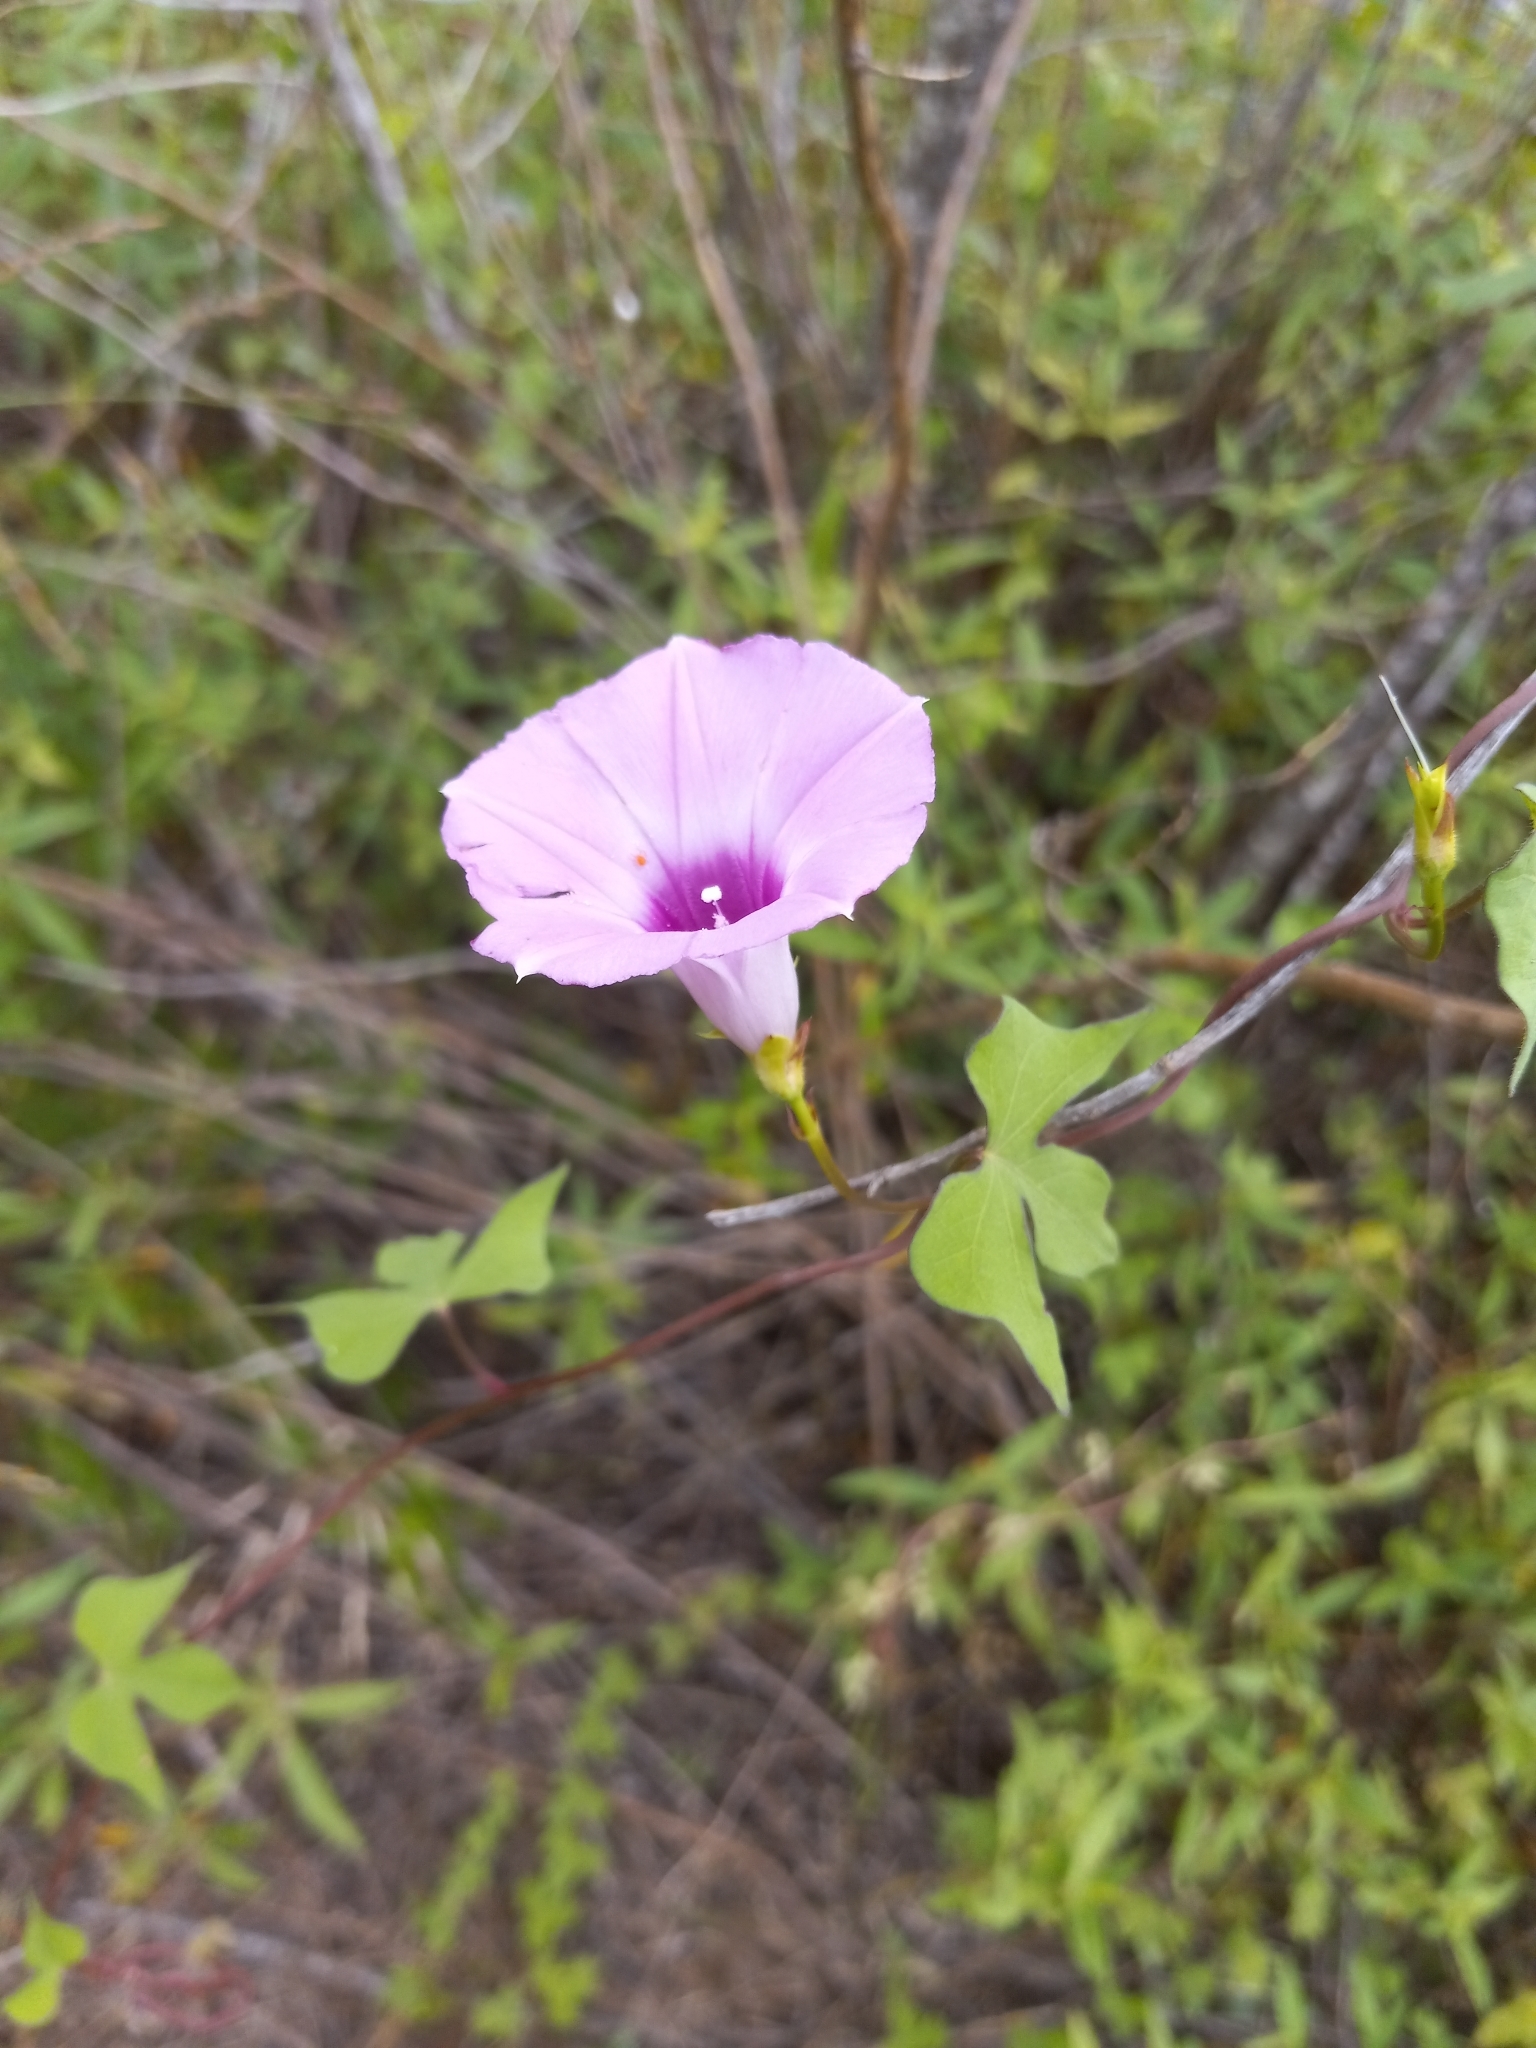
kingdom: Plantae
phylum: Tracheophyta
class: Magnoliopsida
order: Solanales
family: Convolvulaceae
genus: Ipomoea
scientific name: Ipomoea cordatotriloba
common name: Cotton morning glory
